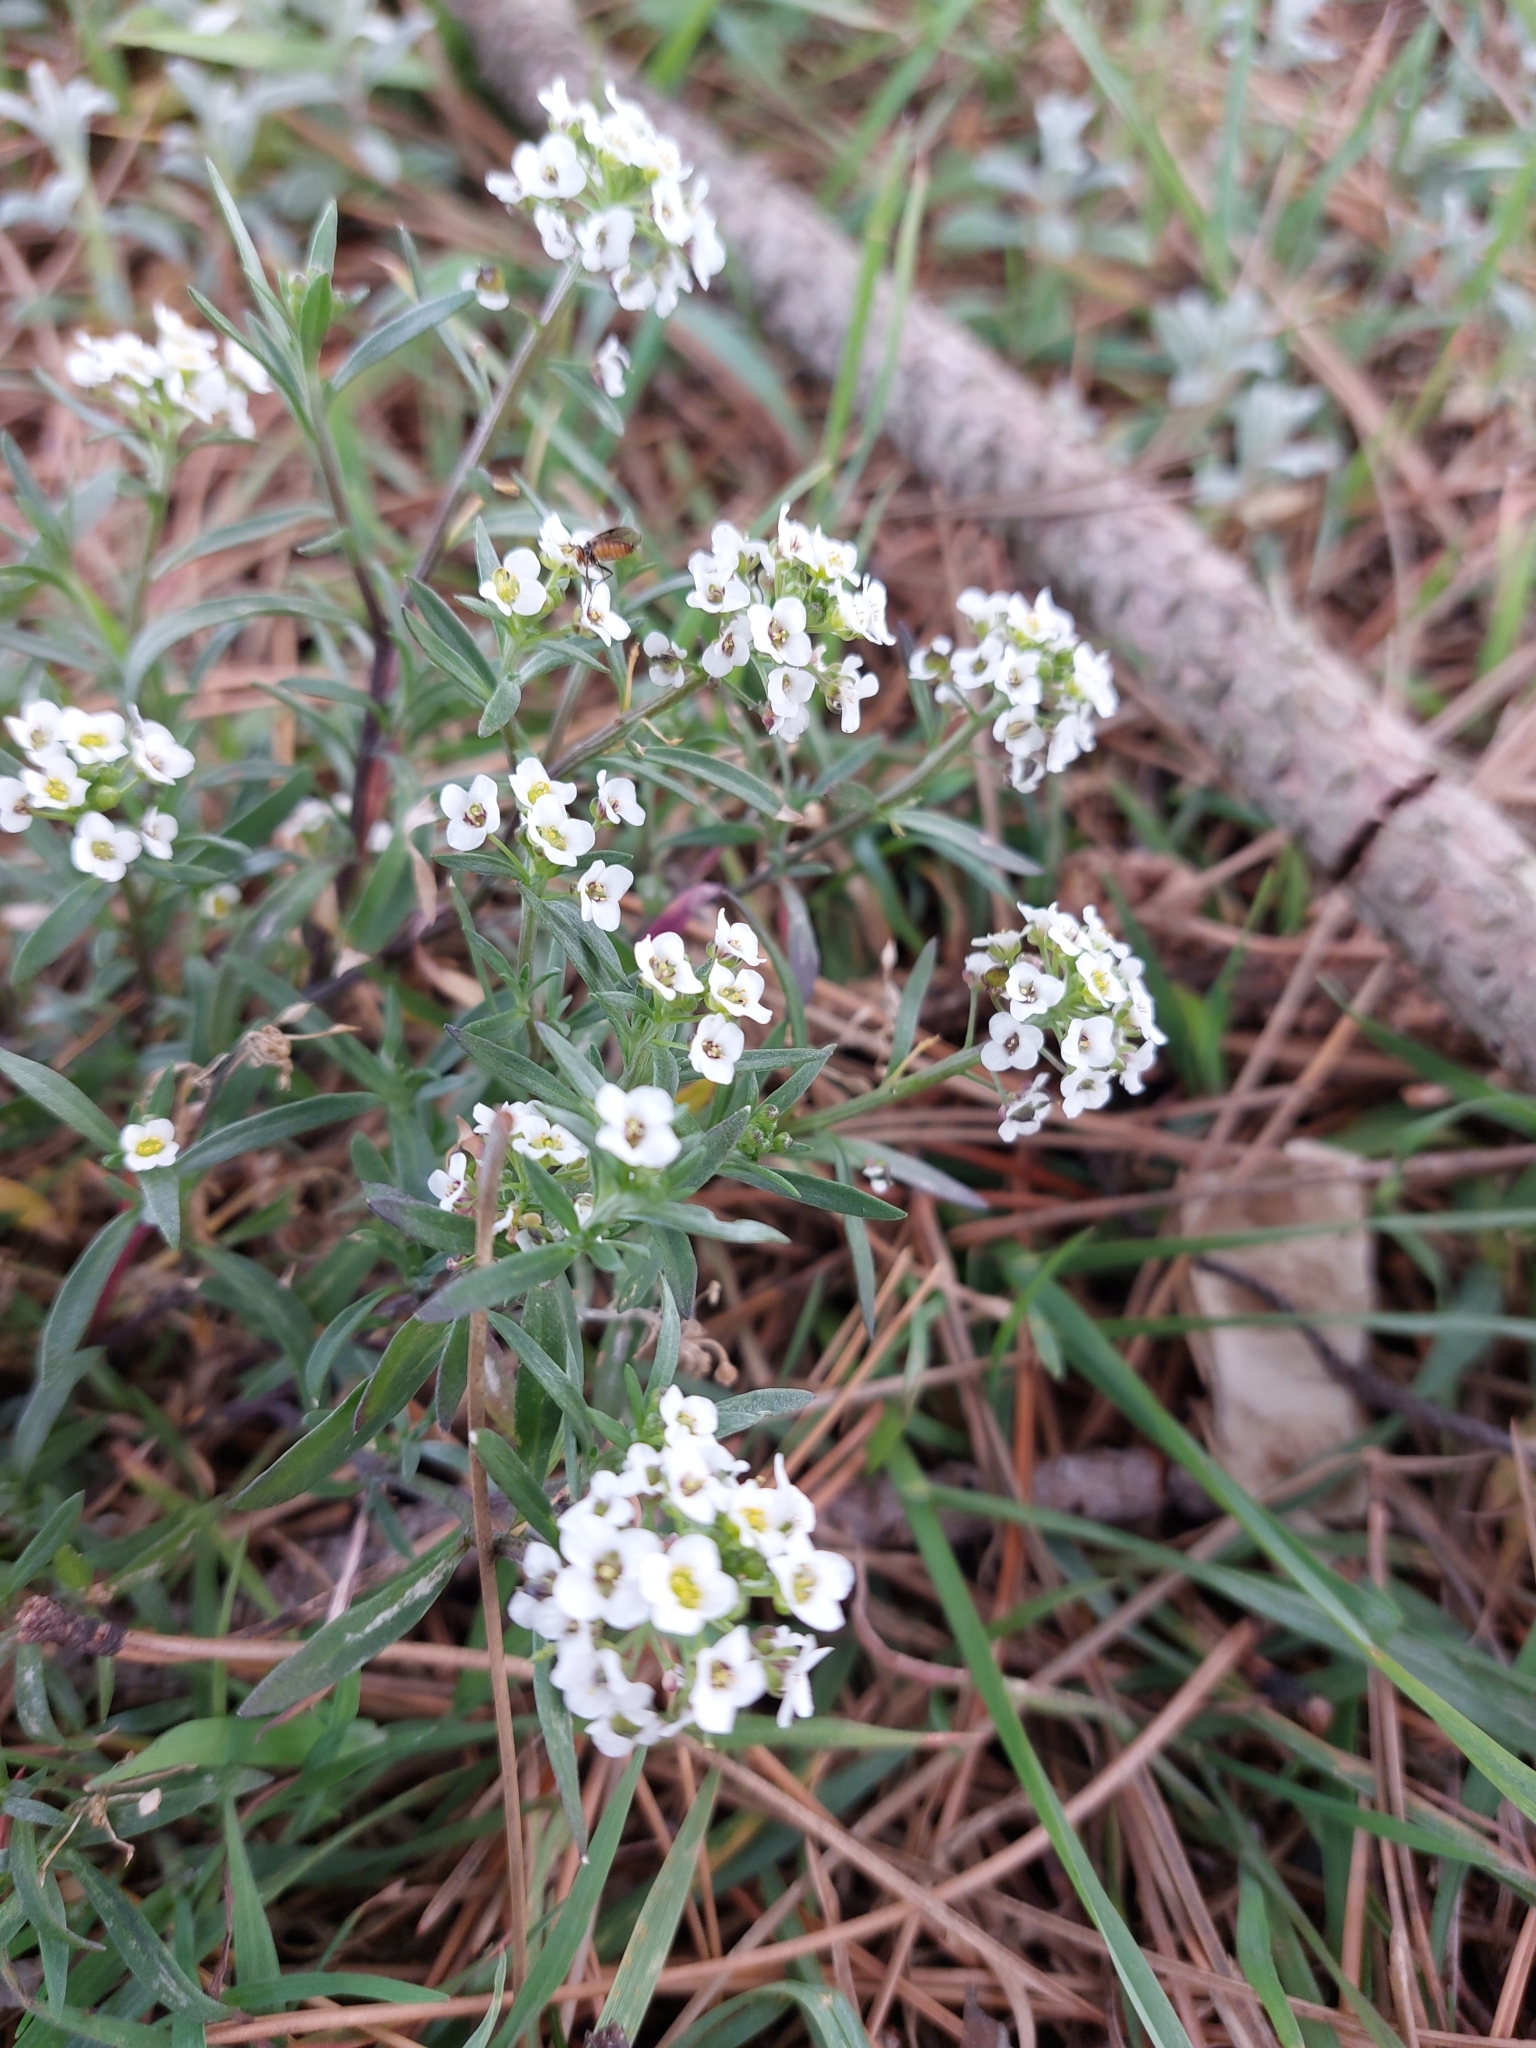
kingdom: Plantae
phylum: Tracheophyta
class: Magnoliopsida
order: Brassicales
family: Brassicaceae
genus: Lobularia
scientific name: Lobularia maritima
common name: Sweet alison
